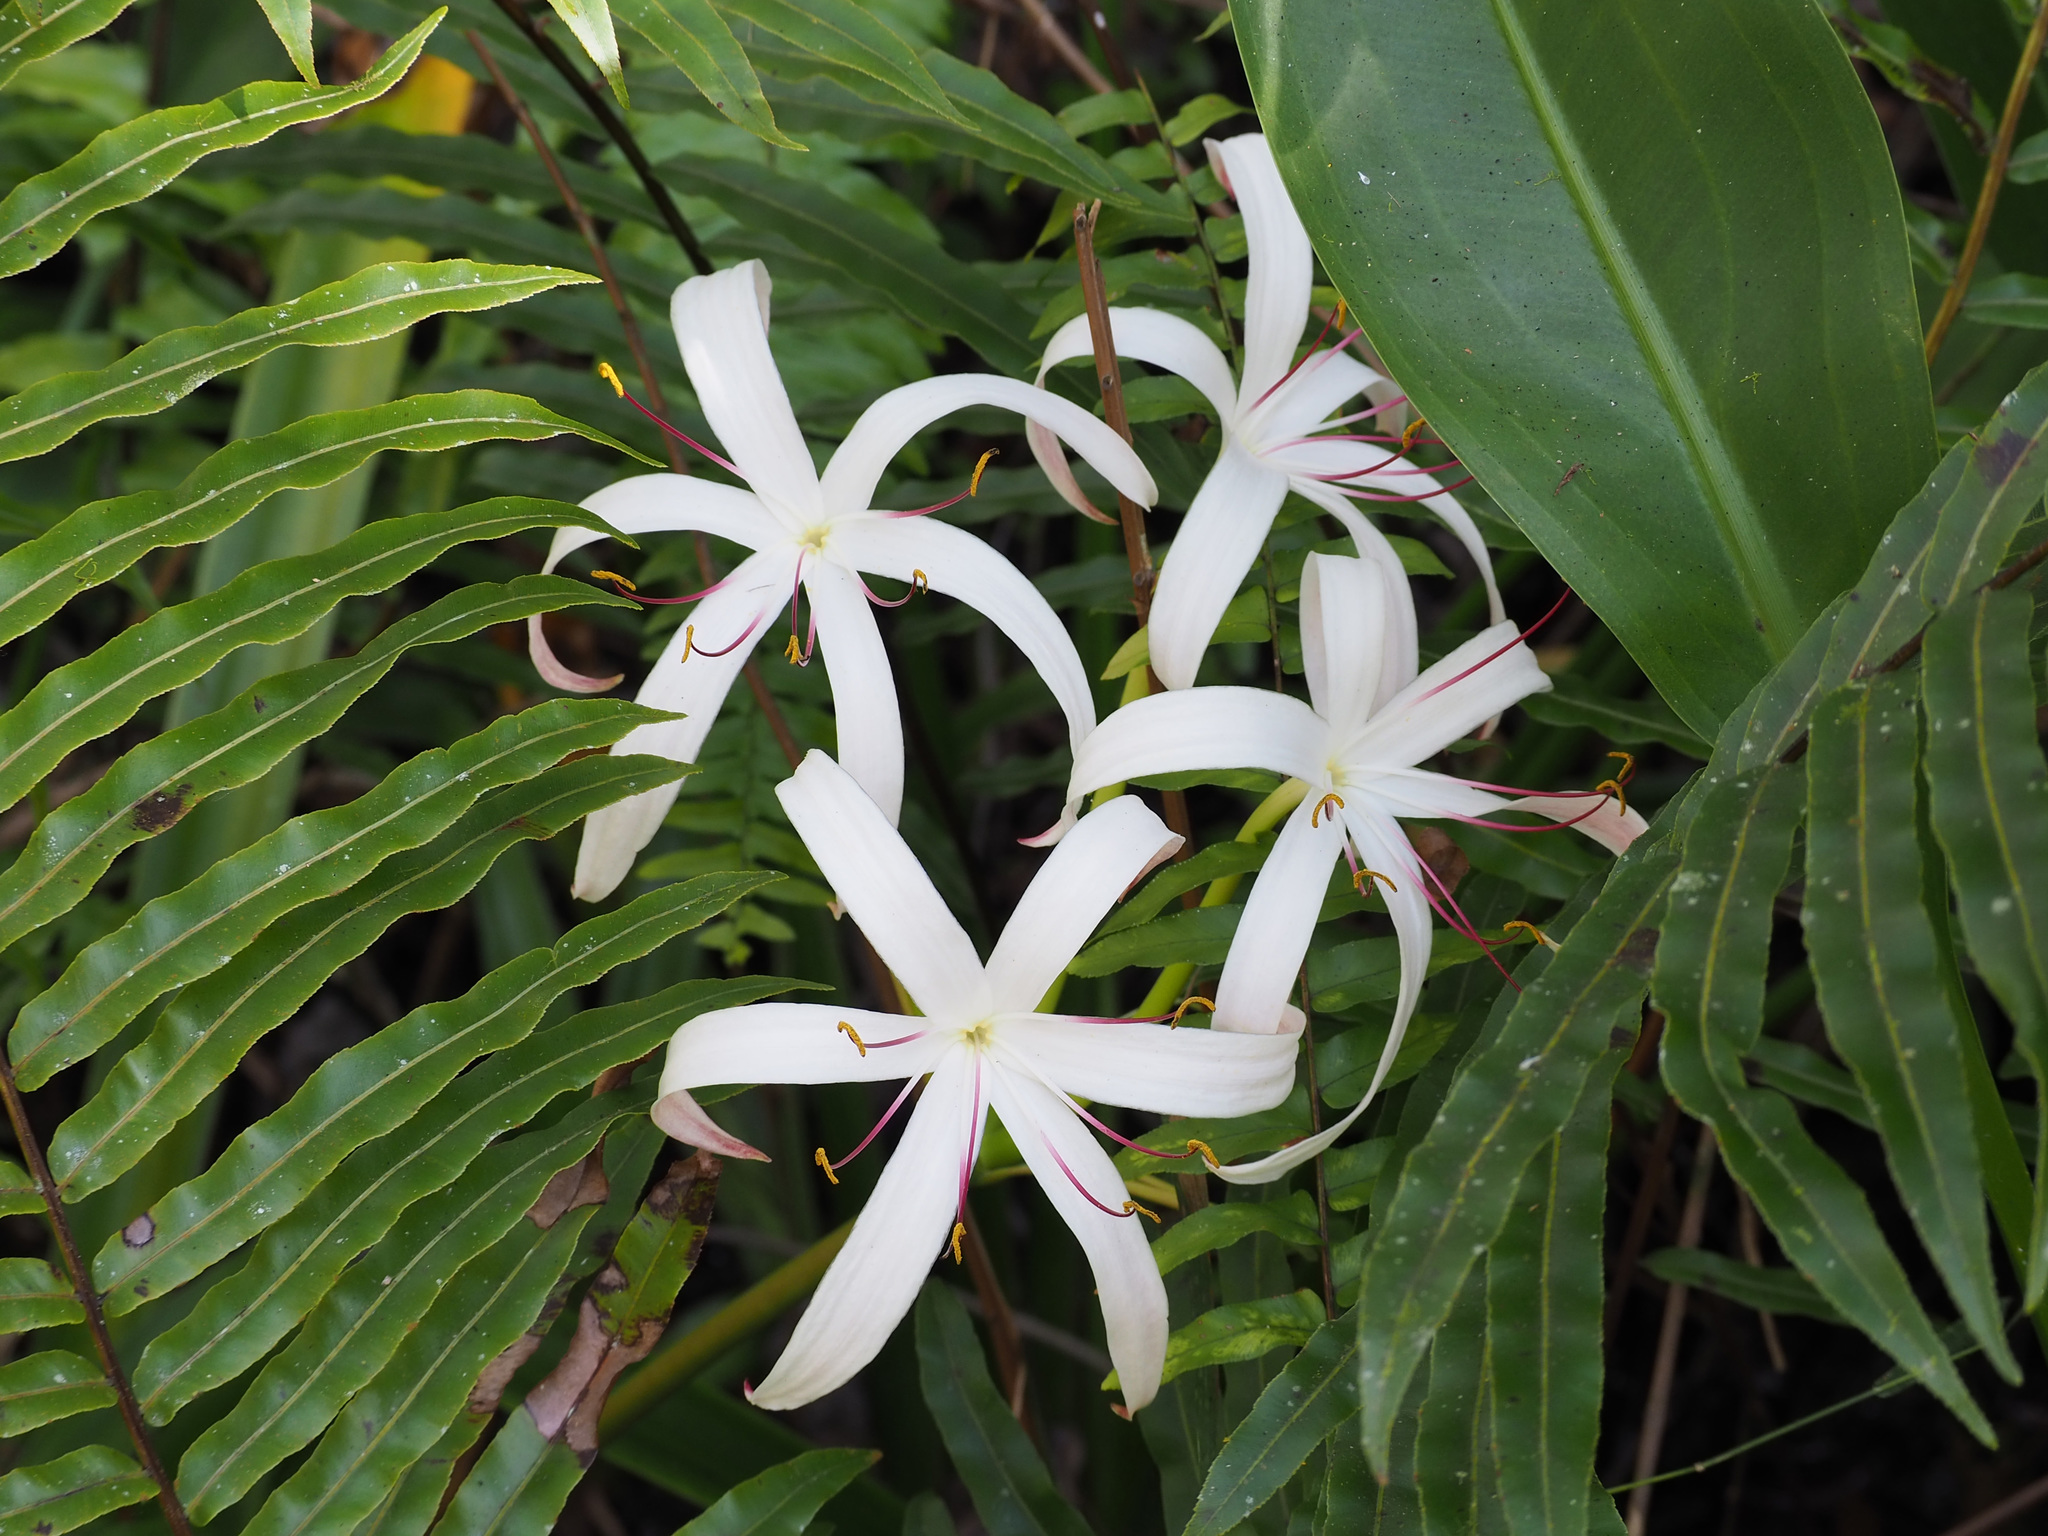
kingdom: Plantae
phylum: Tracheophyta
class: Liliopsida
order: Asparagales
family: Amaryllidaceae
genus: Crinum
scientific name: Crinum americanum
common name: Florida swamp-lily
